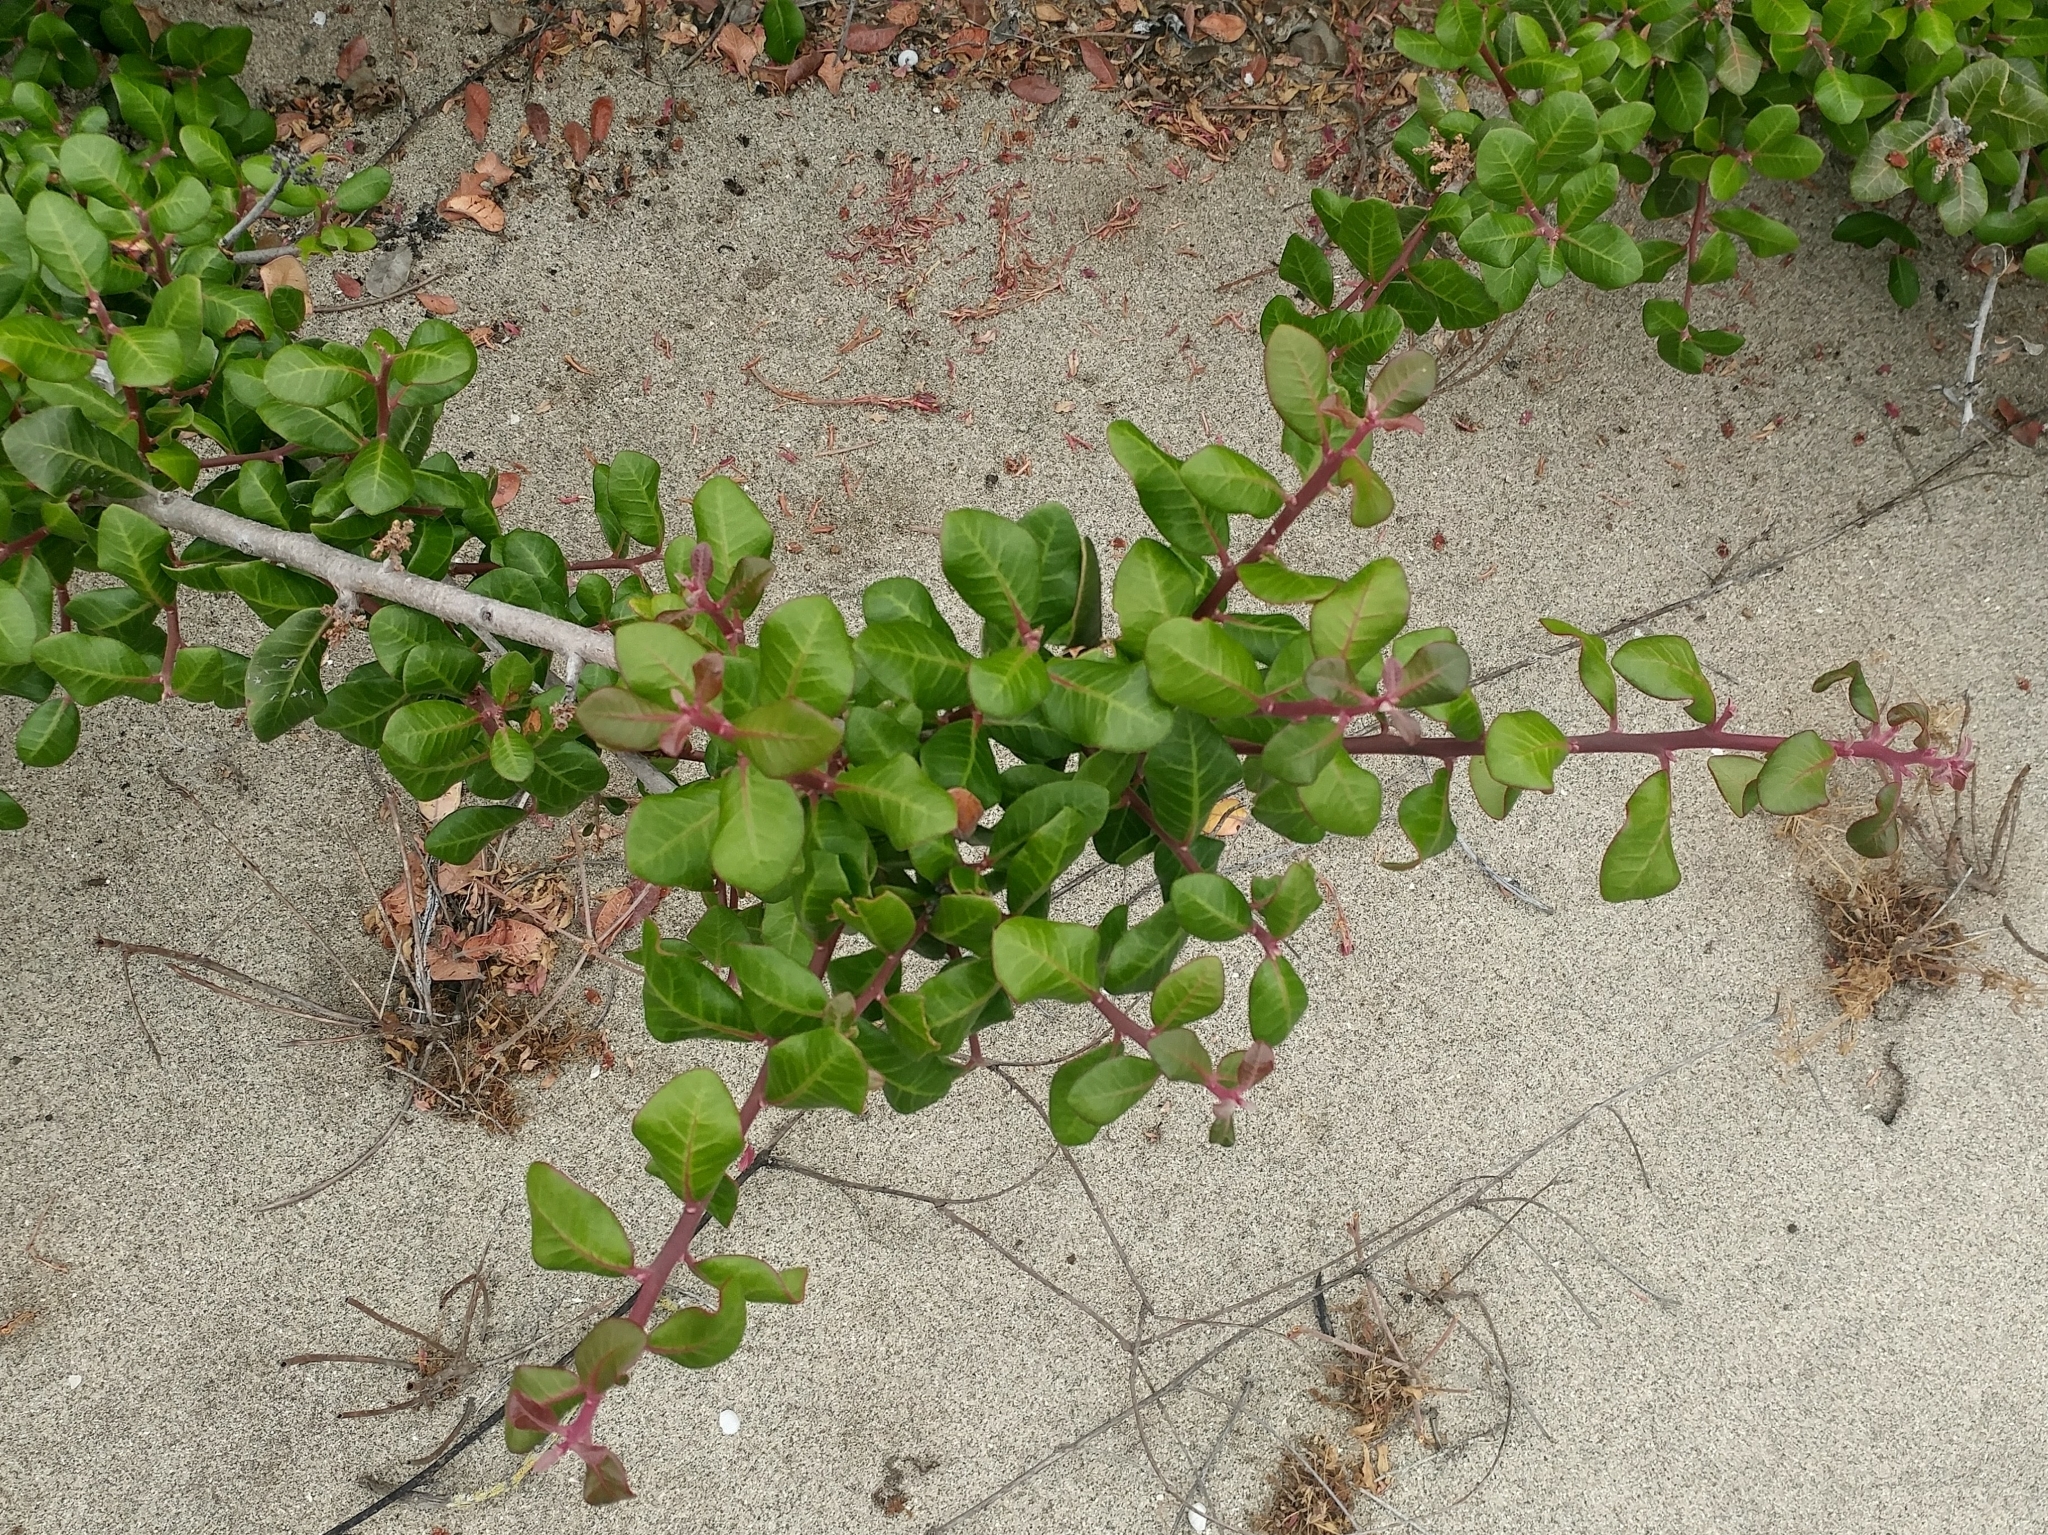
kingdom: Plantae
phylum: Tracheophyta
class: Magnoliopsida
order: Sapindales
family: Anacardiaceae
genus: Rhus
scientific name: Rhus integrifolia
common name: Lemonade sumac
